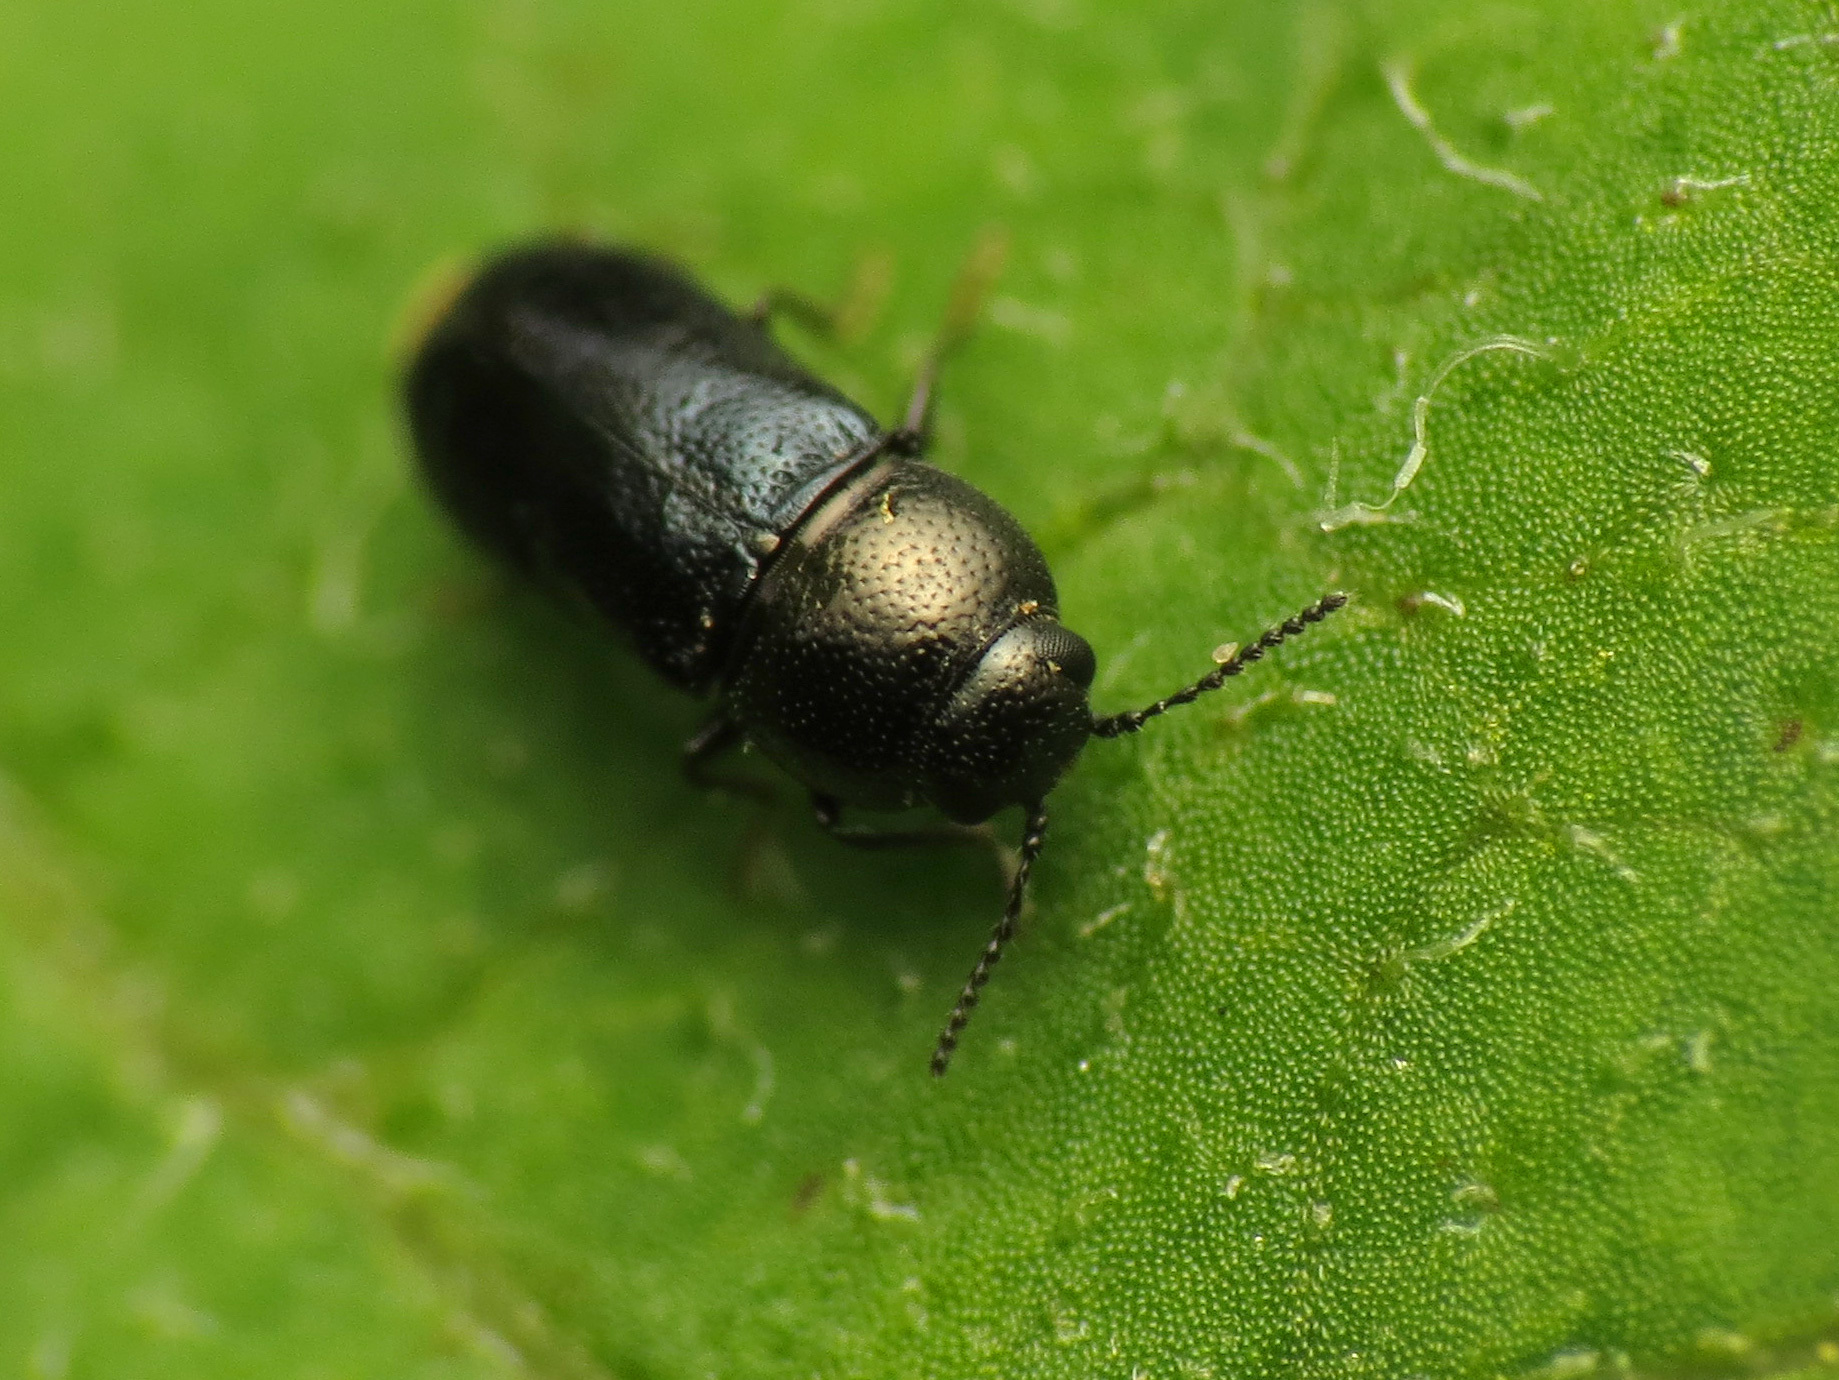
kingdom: Animalia
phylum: Arthropoda
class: Insecta
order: Coleoptera
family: Buprestidae
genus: Mastogenius
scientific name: Mastogenius subcyaneus
